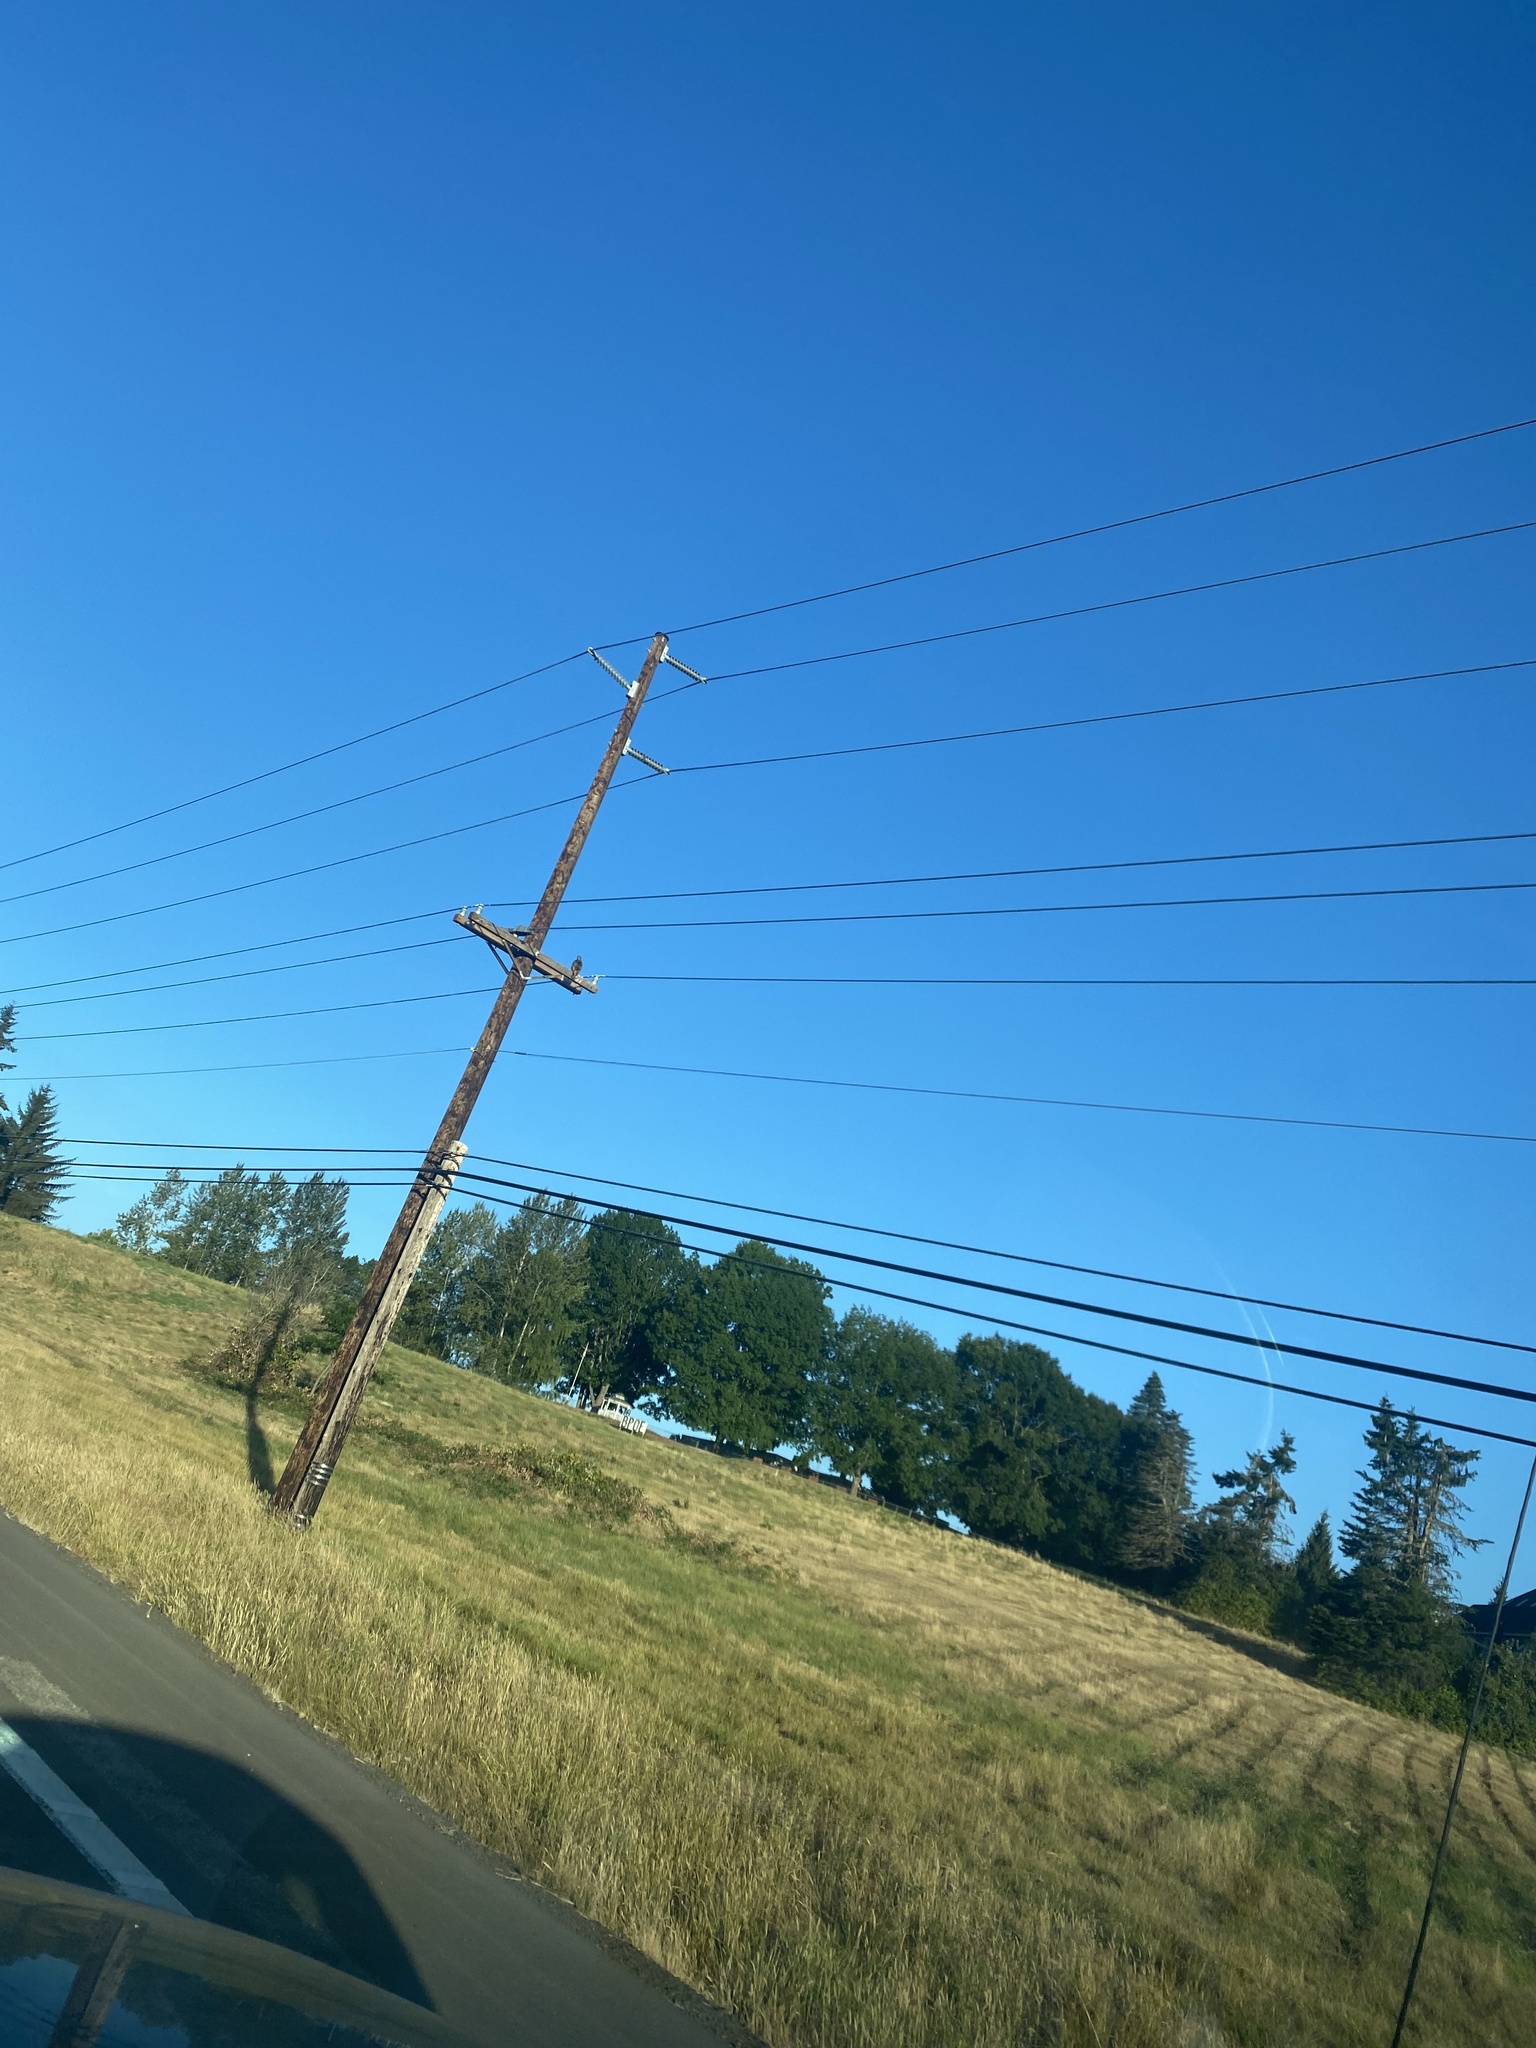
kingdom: Animalia
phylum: Chordata
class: Aves
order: Accipitriformes
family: Accipitridae
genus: Buteo
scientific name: Buteo jamaicensis
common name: Red-tailed hawk
